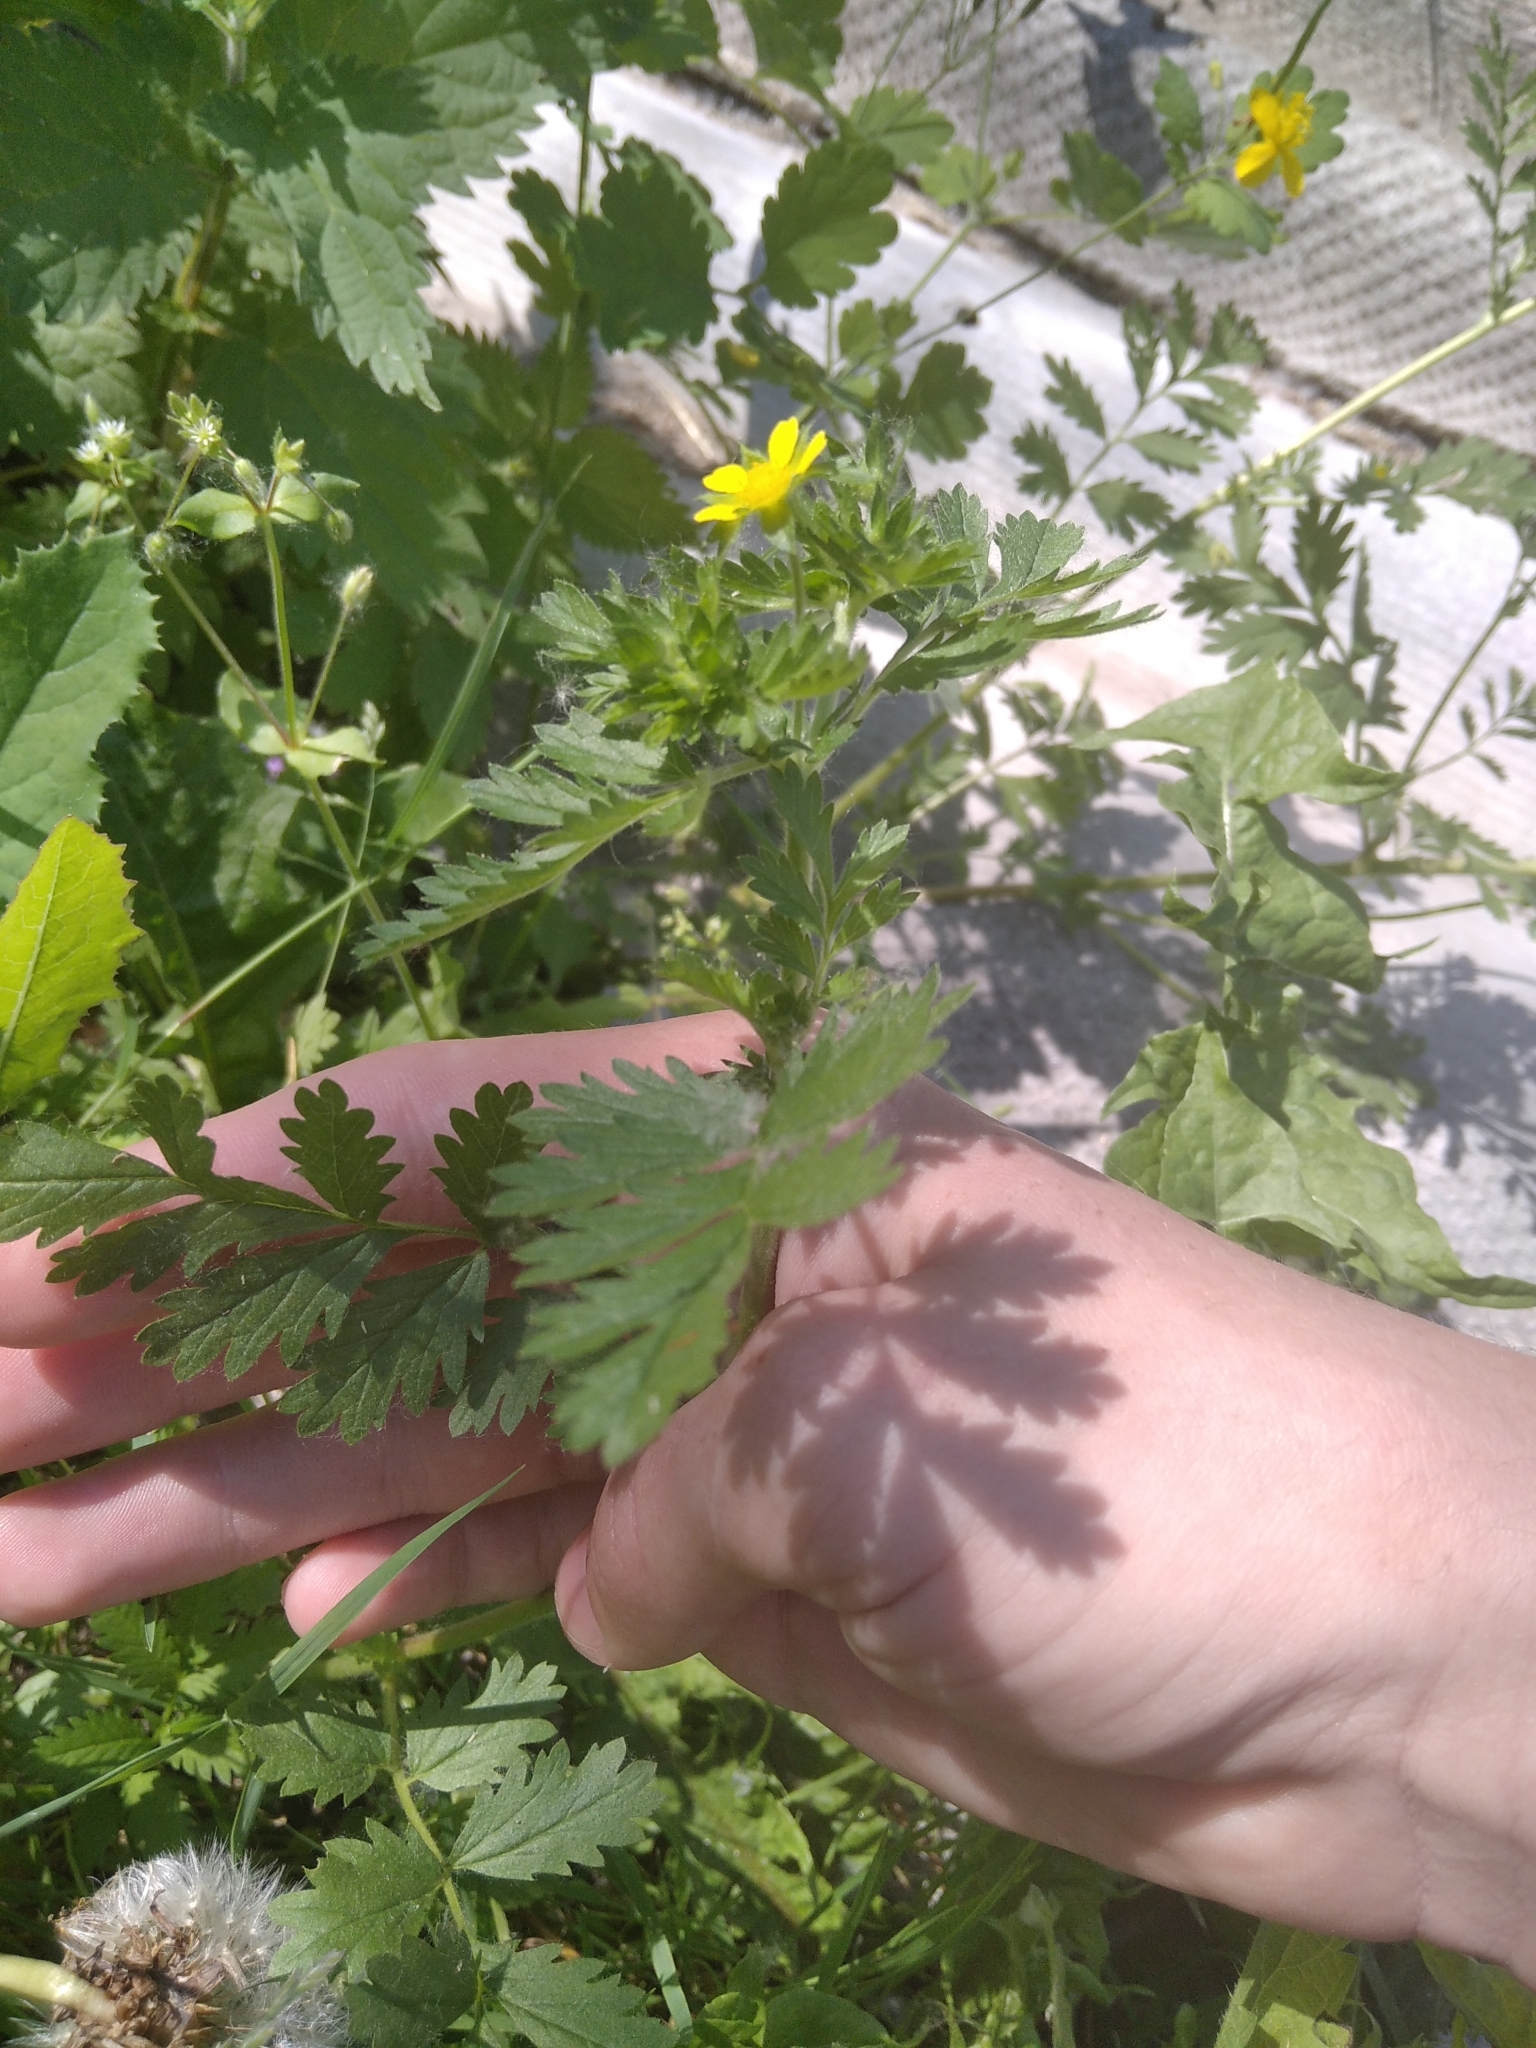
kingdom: Plantae
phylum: Tracheophyta
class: Magnoliopsida
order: Rosales
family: Rosaceae
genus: Potentilla
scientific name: Potentilla supina
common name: Prostrate cinquefoil
